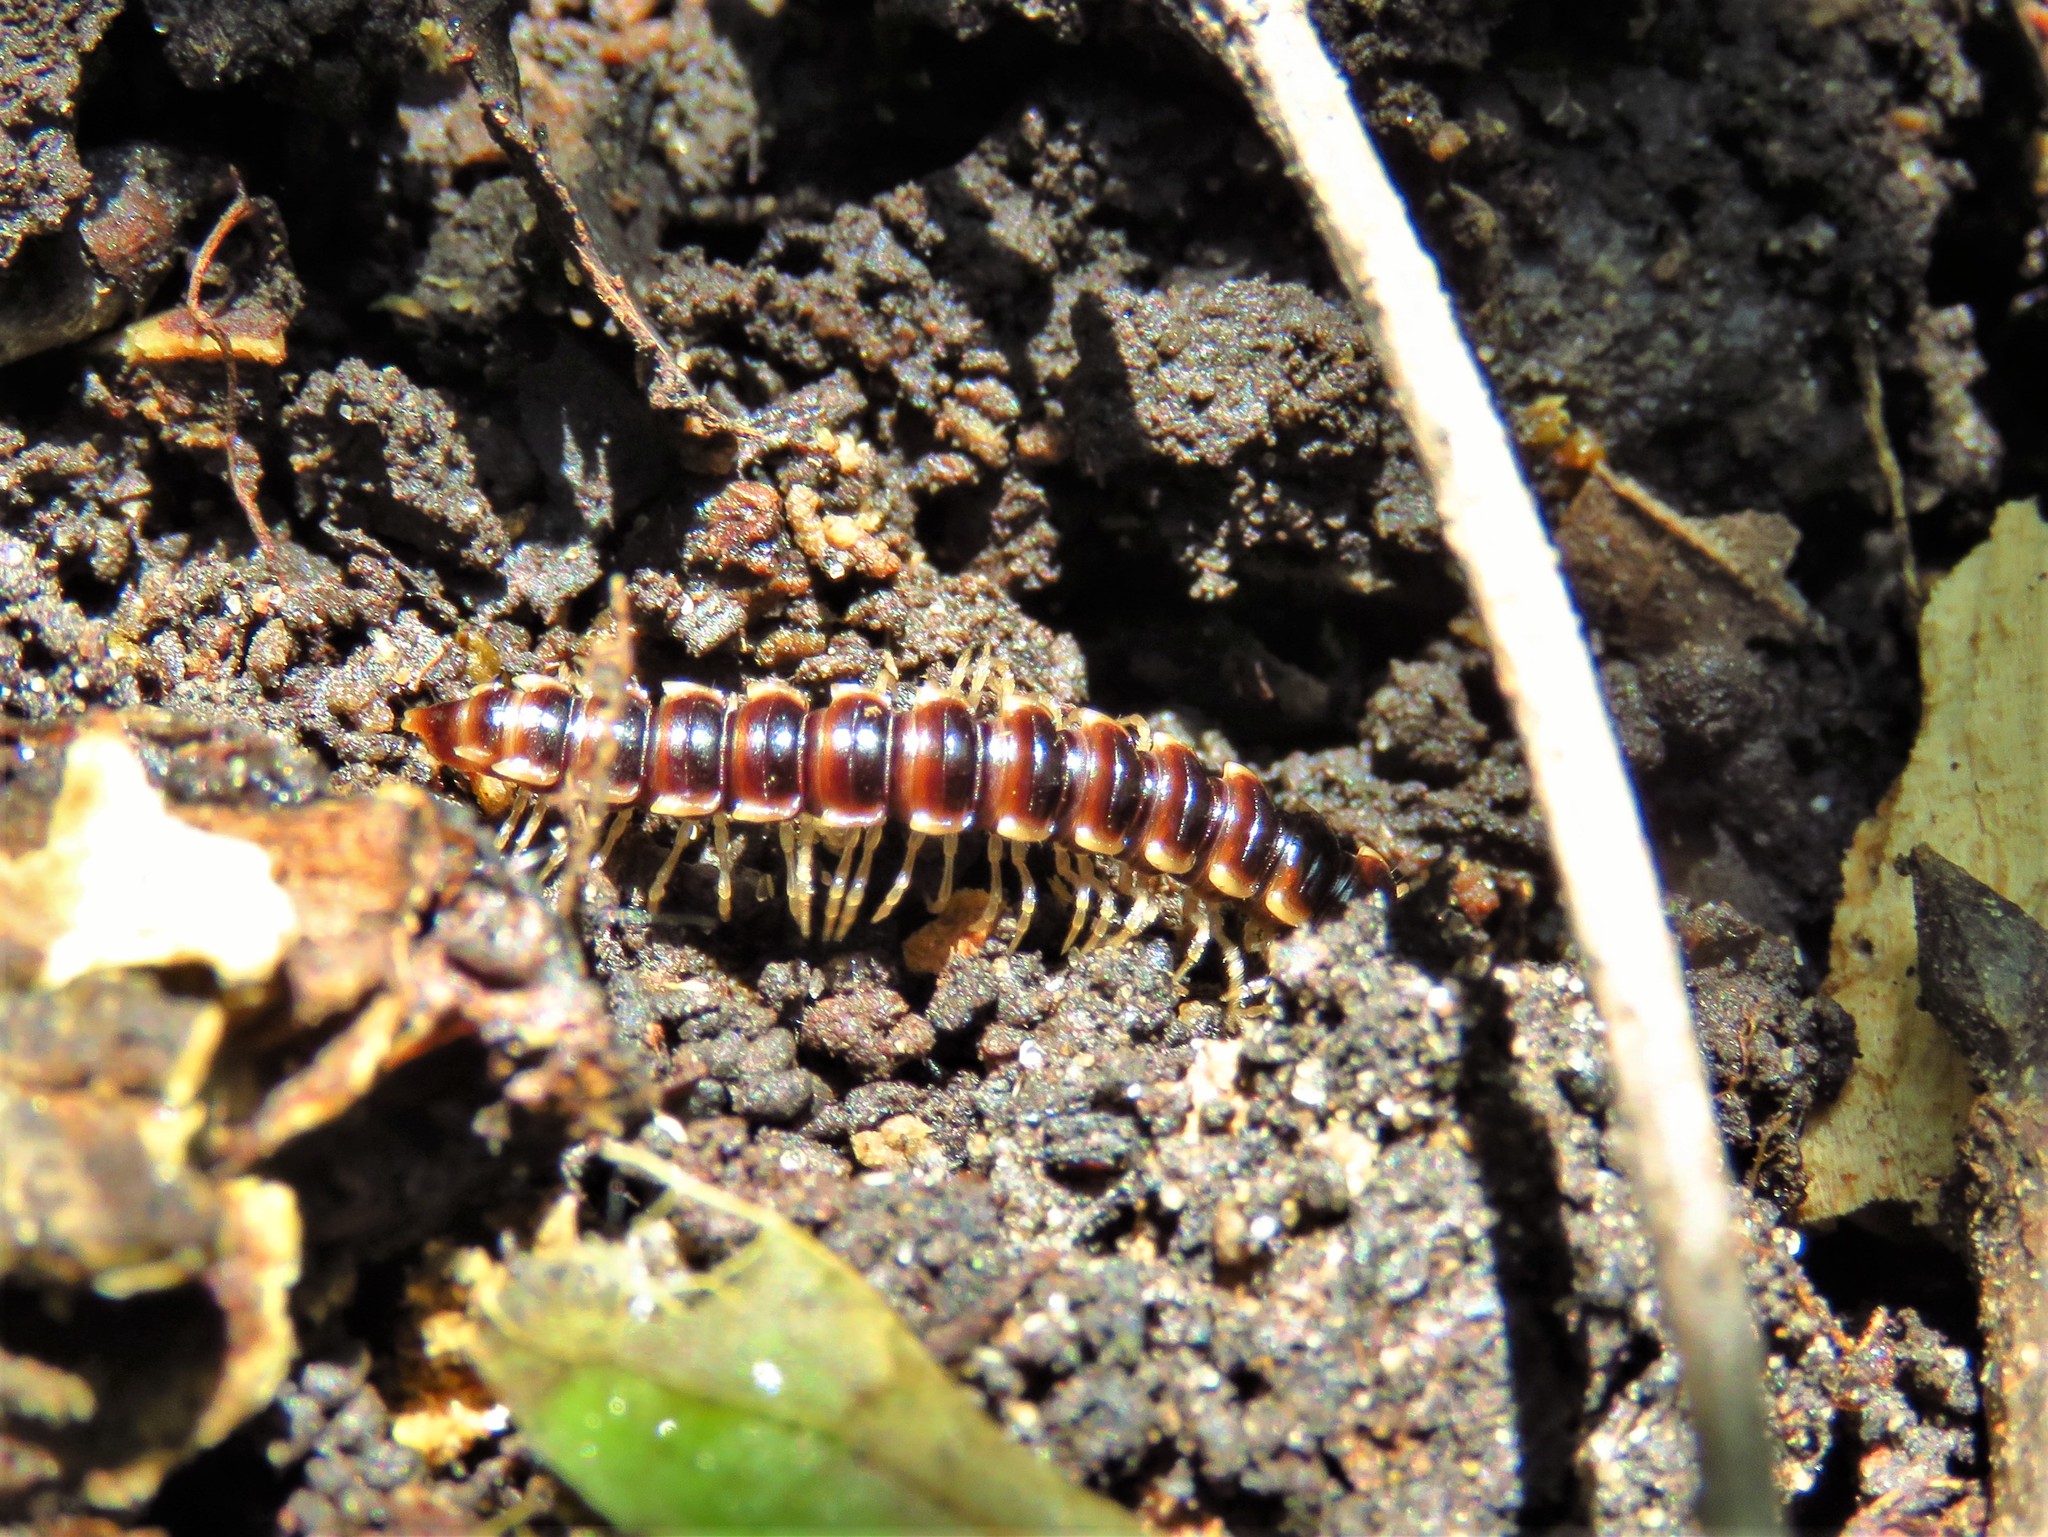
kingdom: Animalia
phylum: Arthropoda
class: Diplopoda
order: Polydesmida
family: Paradoxosomatidae
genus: Oxidus
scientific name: Oxidus gracilis
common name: Greenhouse millipede
